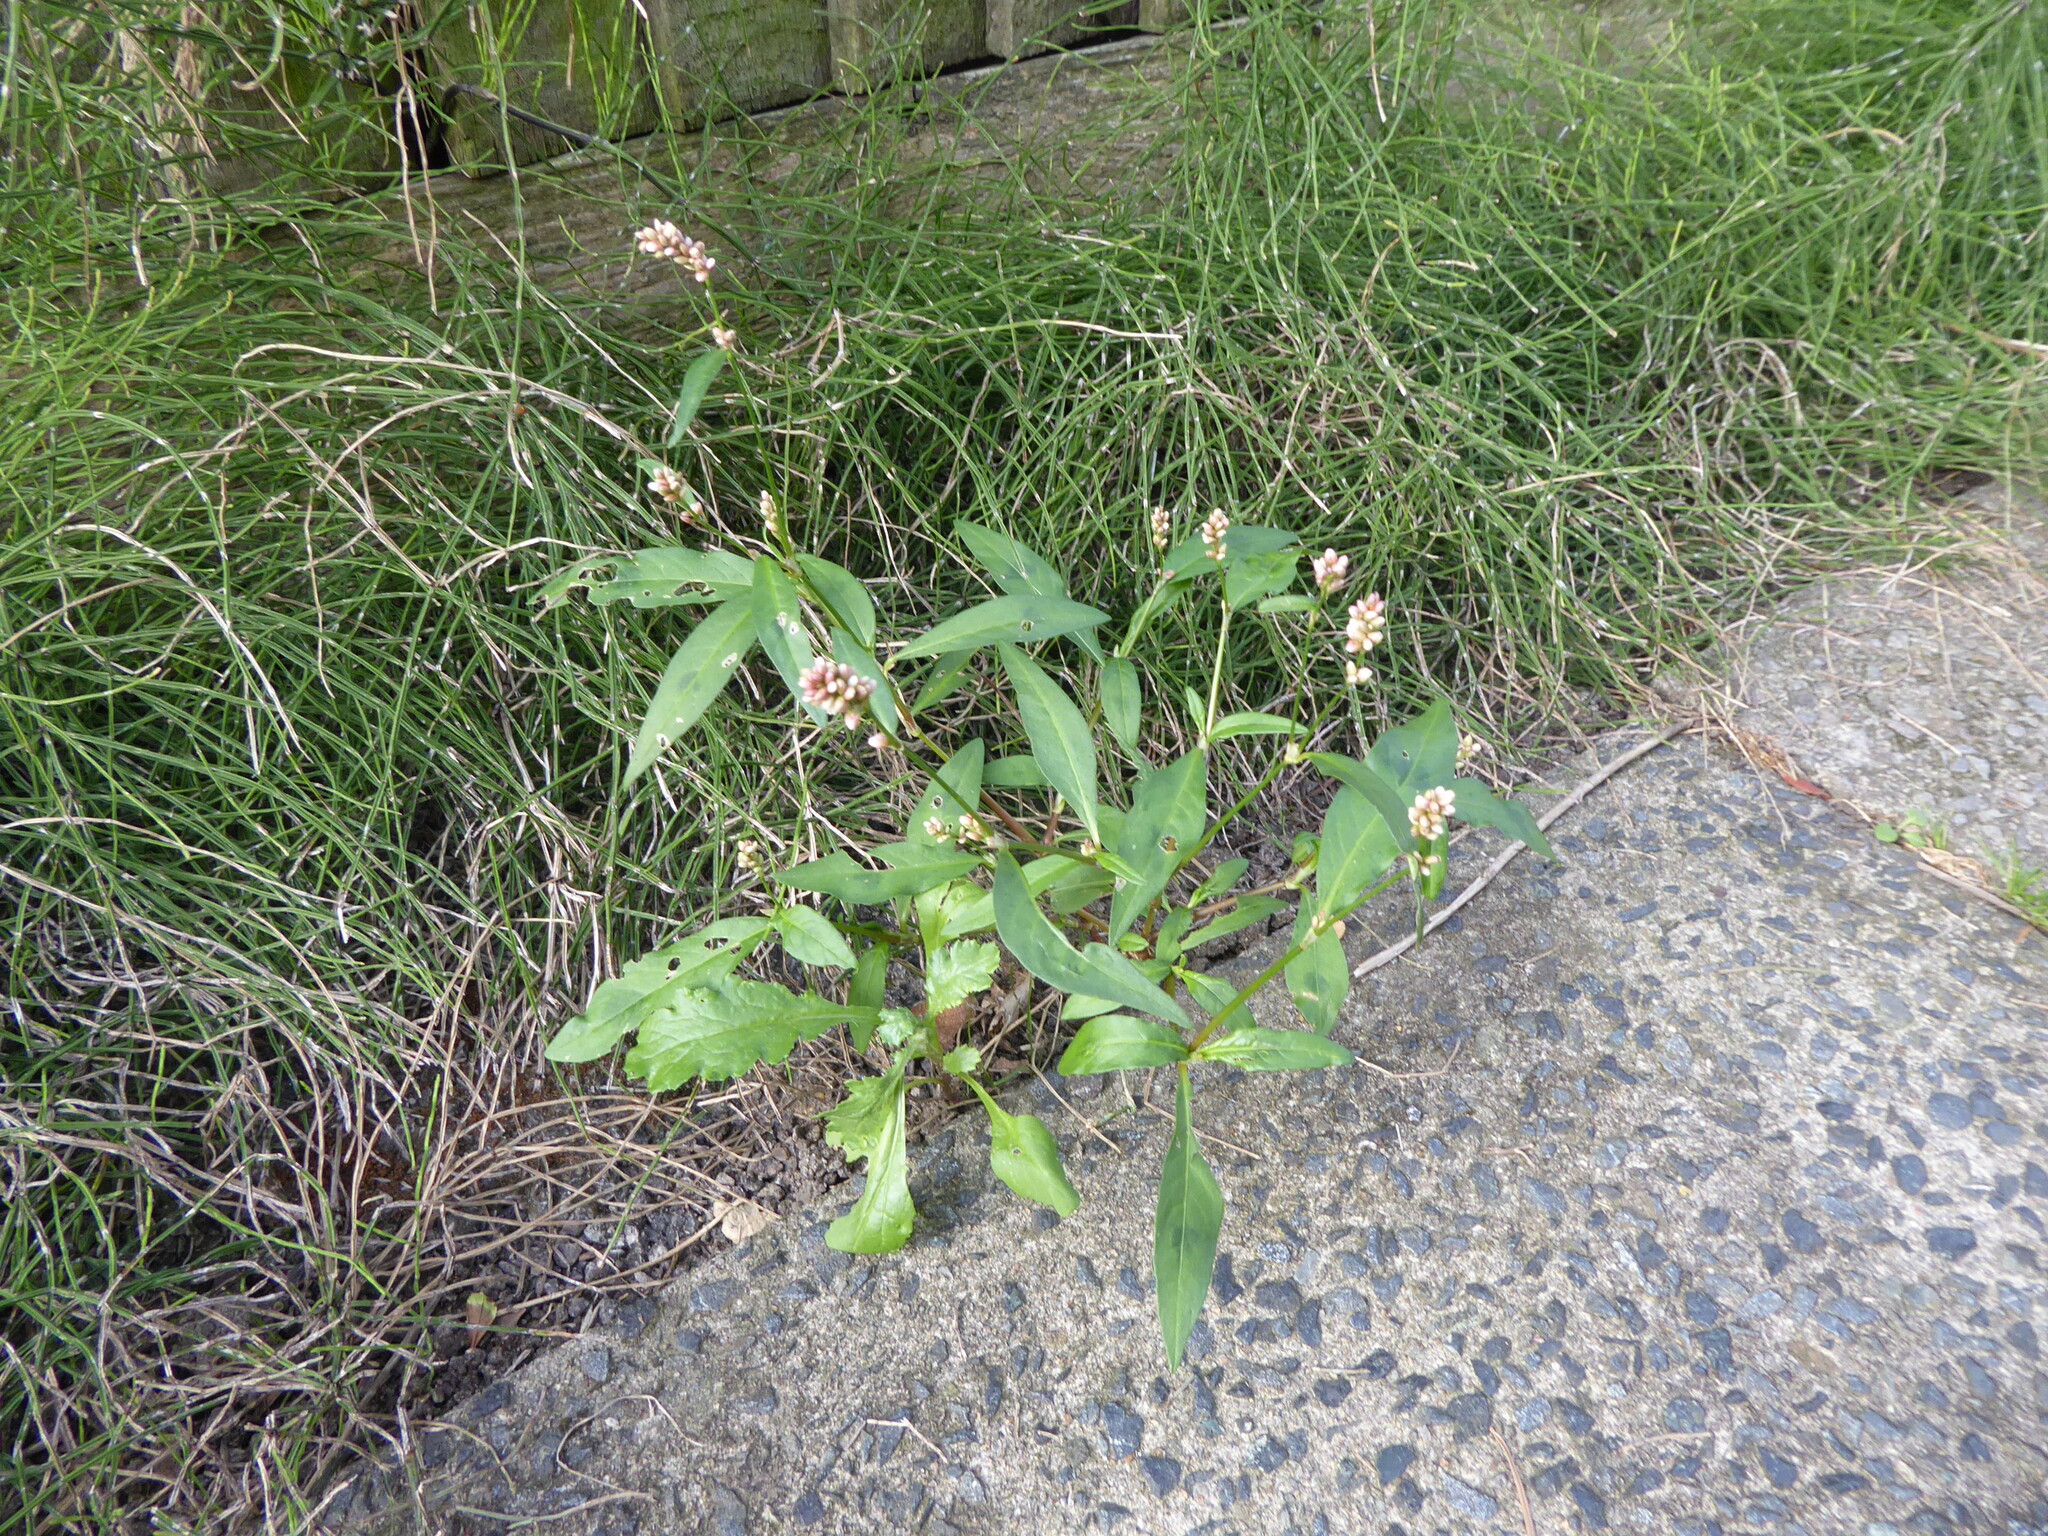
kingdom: Plantae
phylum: Tracheophyta
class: Magnoliopsida
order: Caryophyllales
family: Polygonaceae
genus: Persicaria
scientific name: Persicaria maculosa
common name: Redshank
